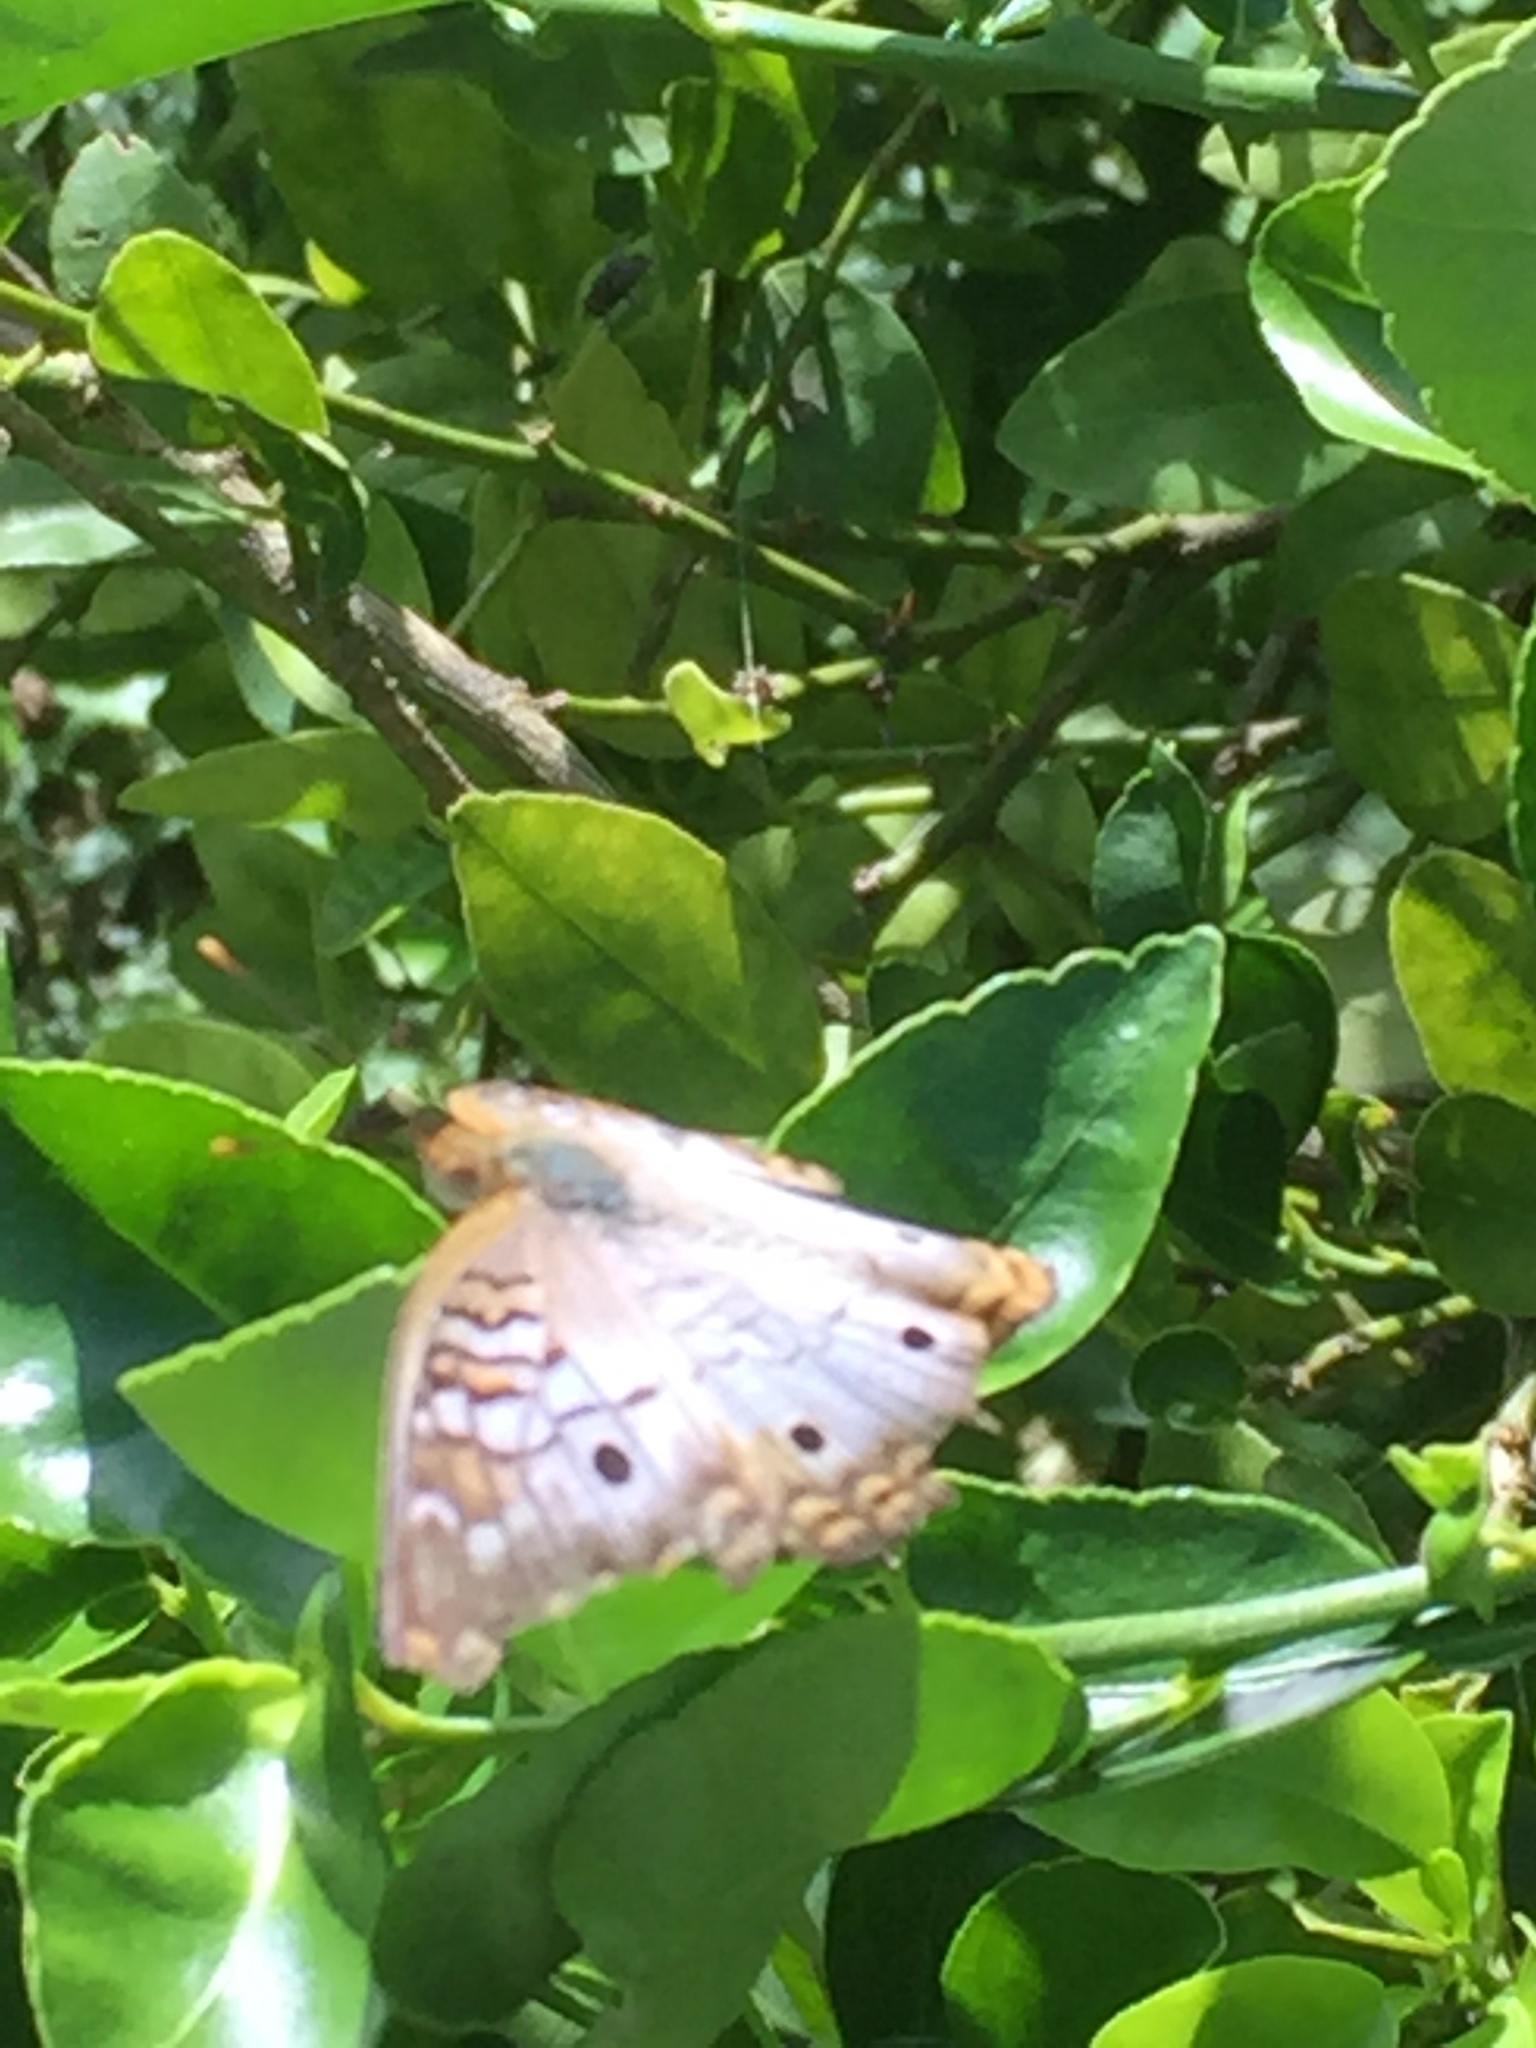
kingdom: Animalia
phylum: Arthropoda
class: Insecta
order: Lepidoptera
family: Nymphalidae
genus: Anartia
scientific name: Anartia jatrophae
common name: White peacock
